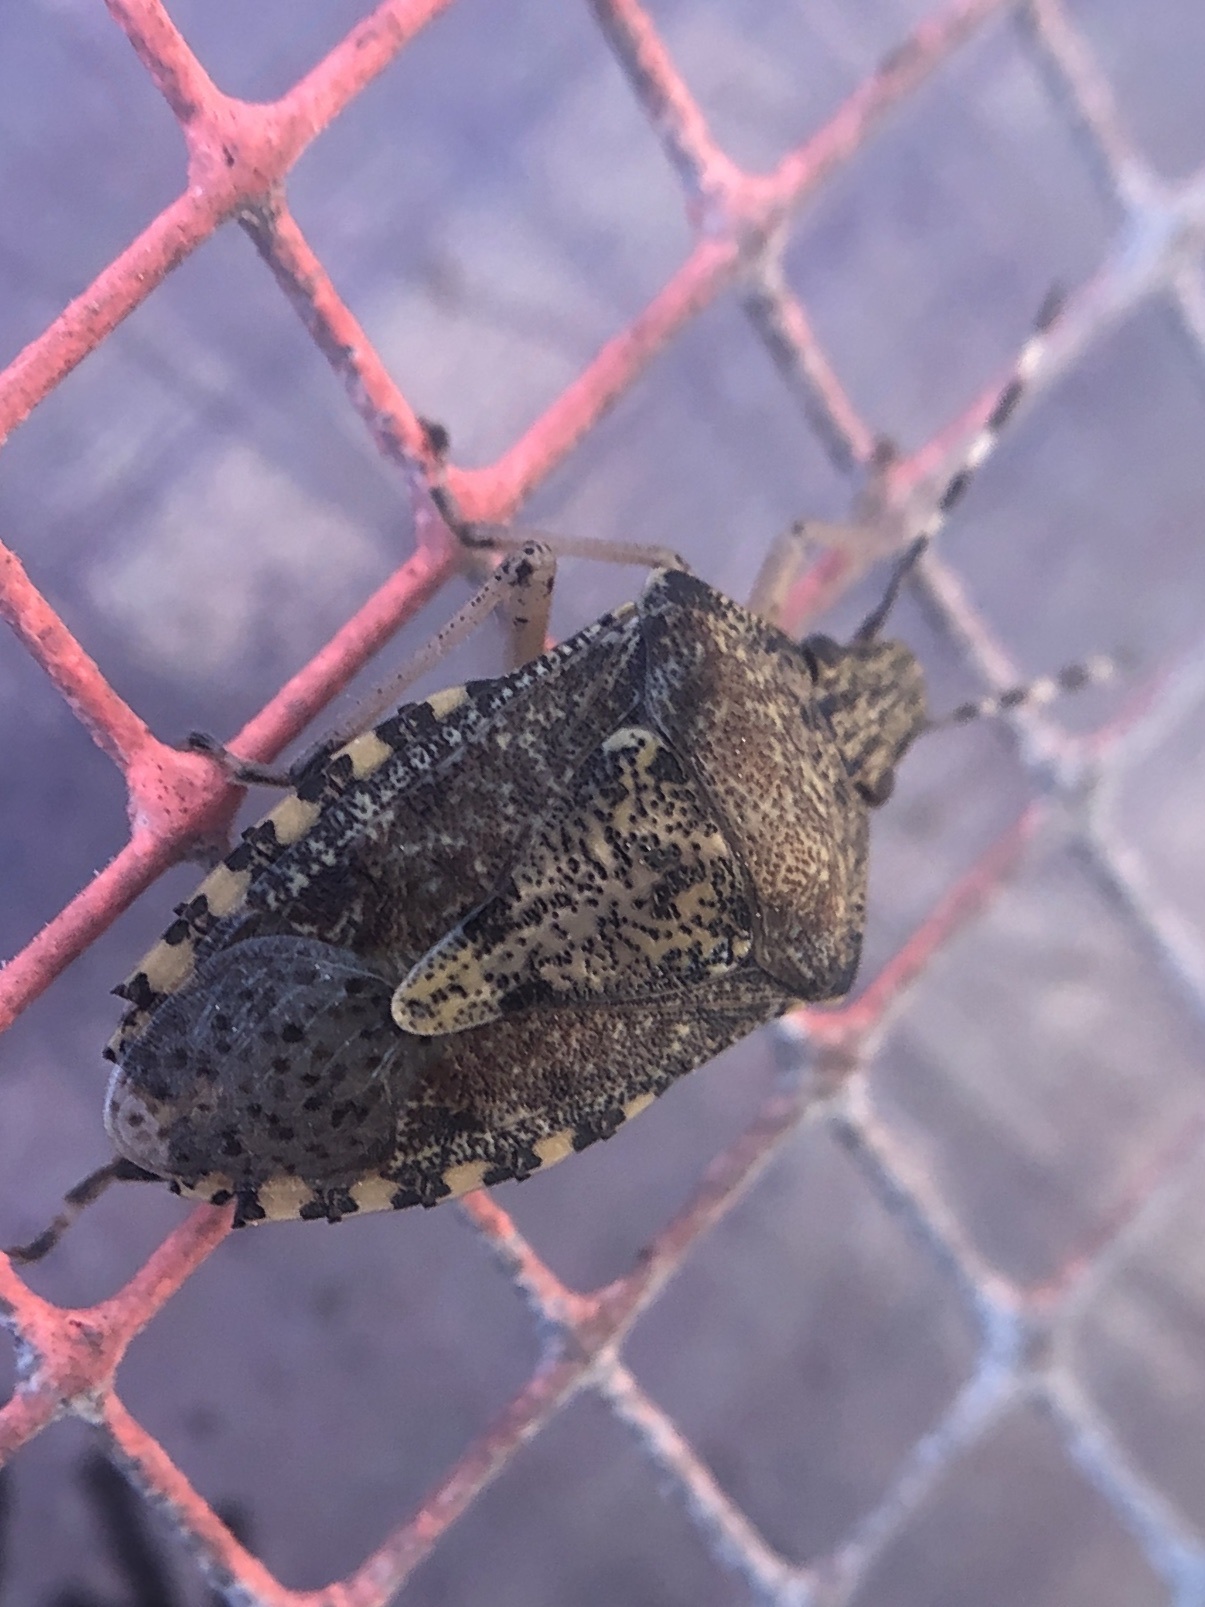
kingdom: Animalia
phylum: Arthropoda
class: Insecta
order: Hemiptera
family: Pentatomidae
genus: Rhaphigaster
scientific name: Rhaphigaster nebulosa
